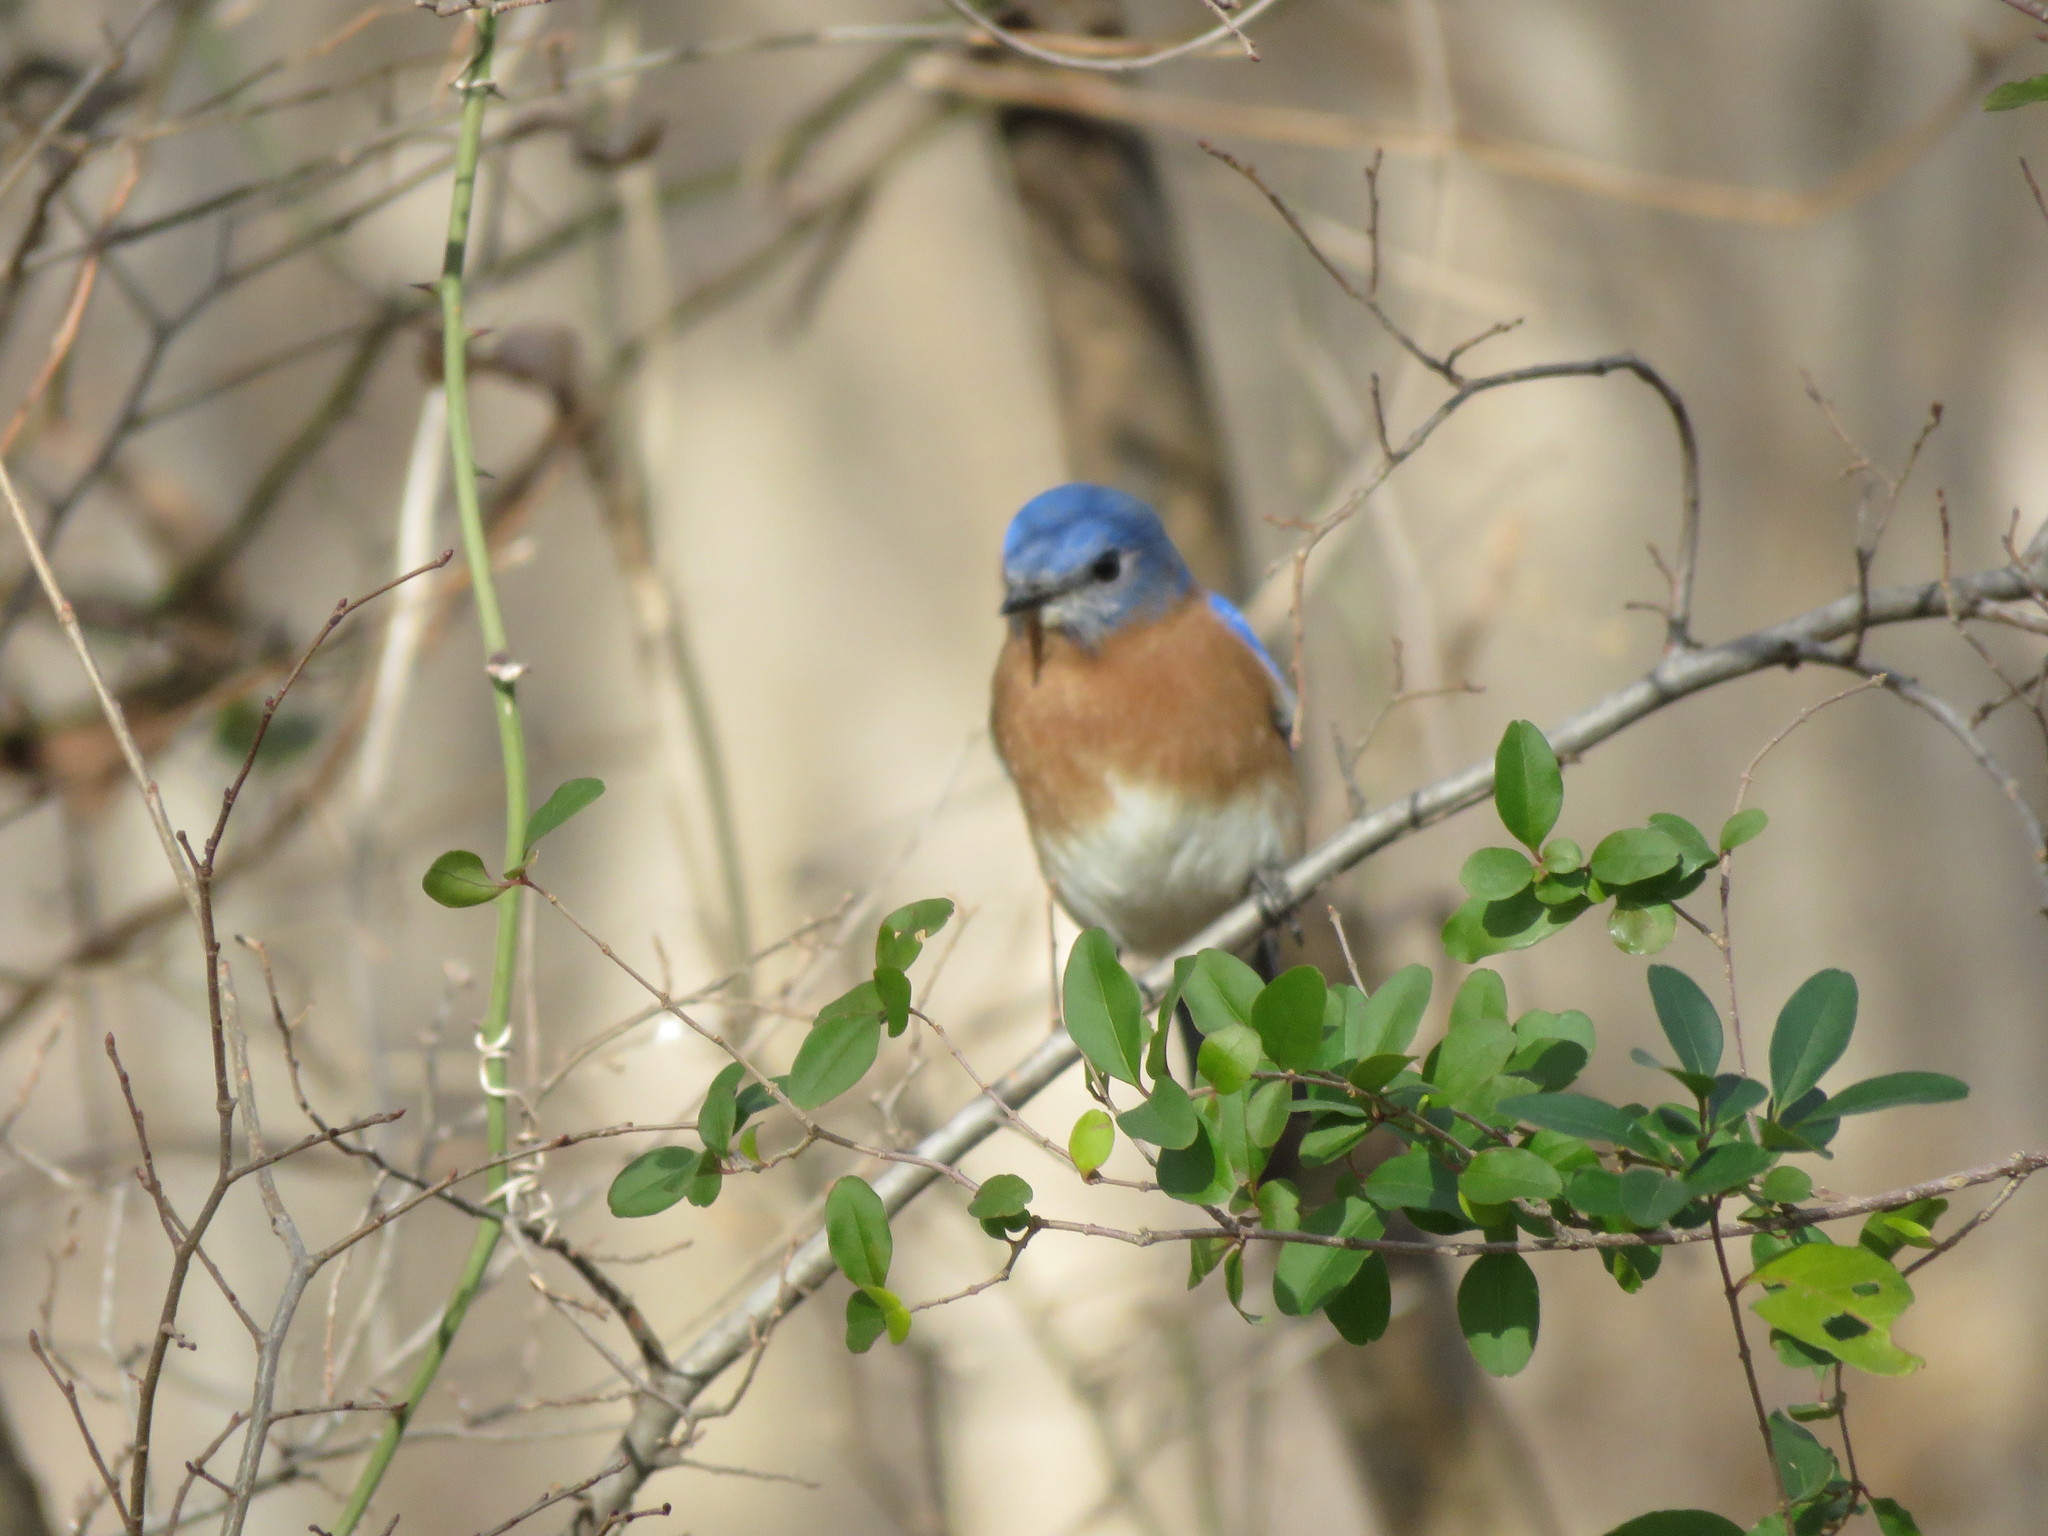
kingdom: Animalia
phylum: Chordata
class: Aves
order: Passeriformes
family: Turdidae
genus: Sialia
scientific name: Sialia sialis
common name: Eastern bluebird
